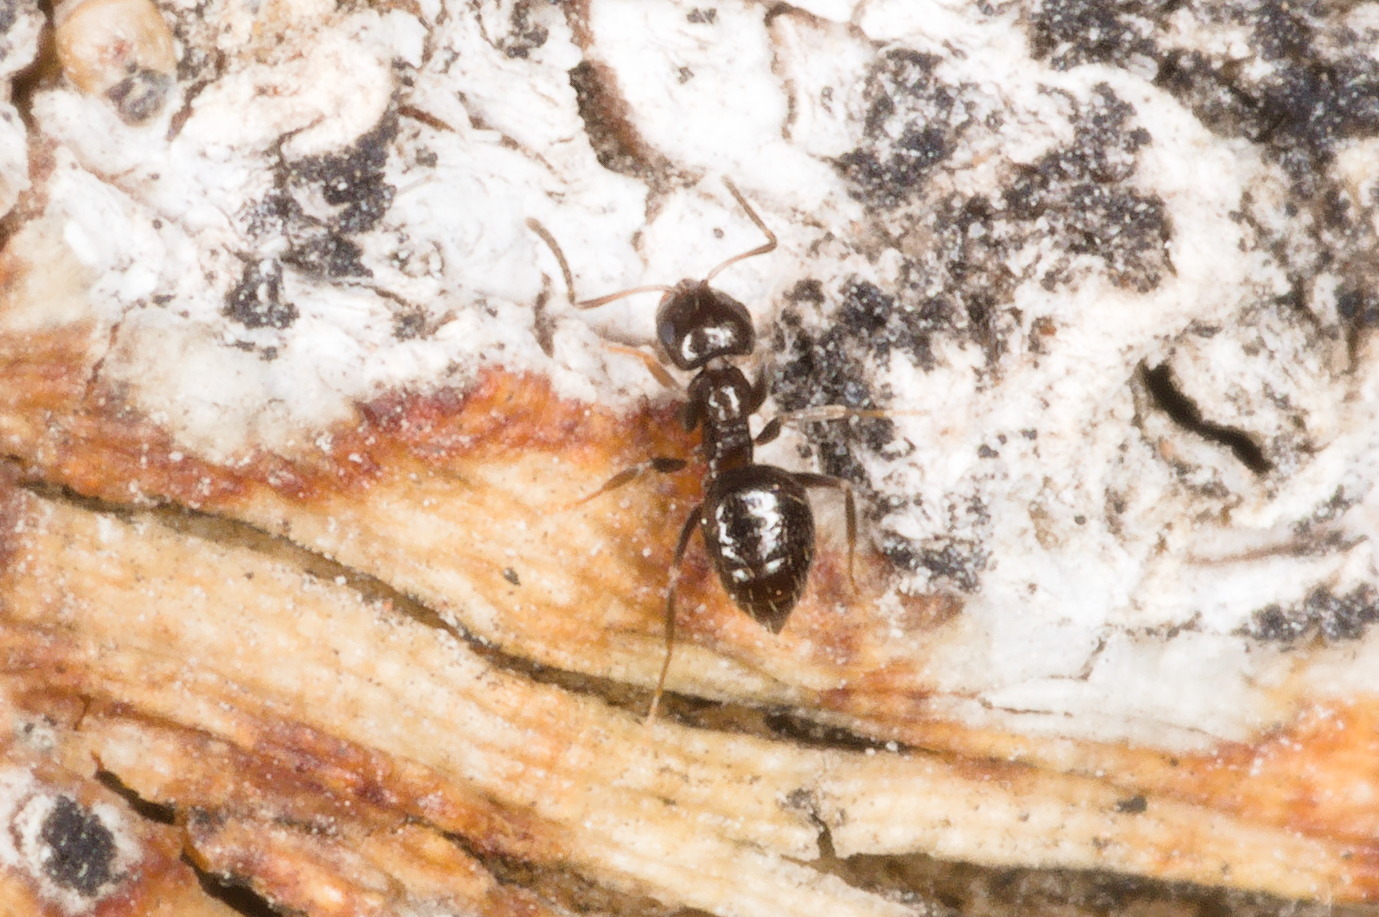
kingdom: Animalia
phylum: Arthropoda
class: Insecta
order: Hymenoptera
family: Formicidae
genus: Brachymyrmex
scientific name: Brachymyrmex patagonicus
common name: Dark rover ant
